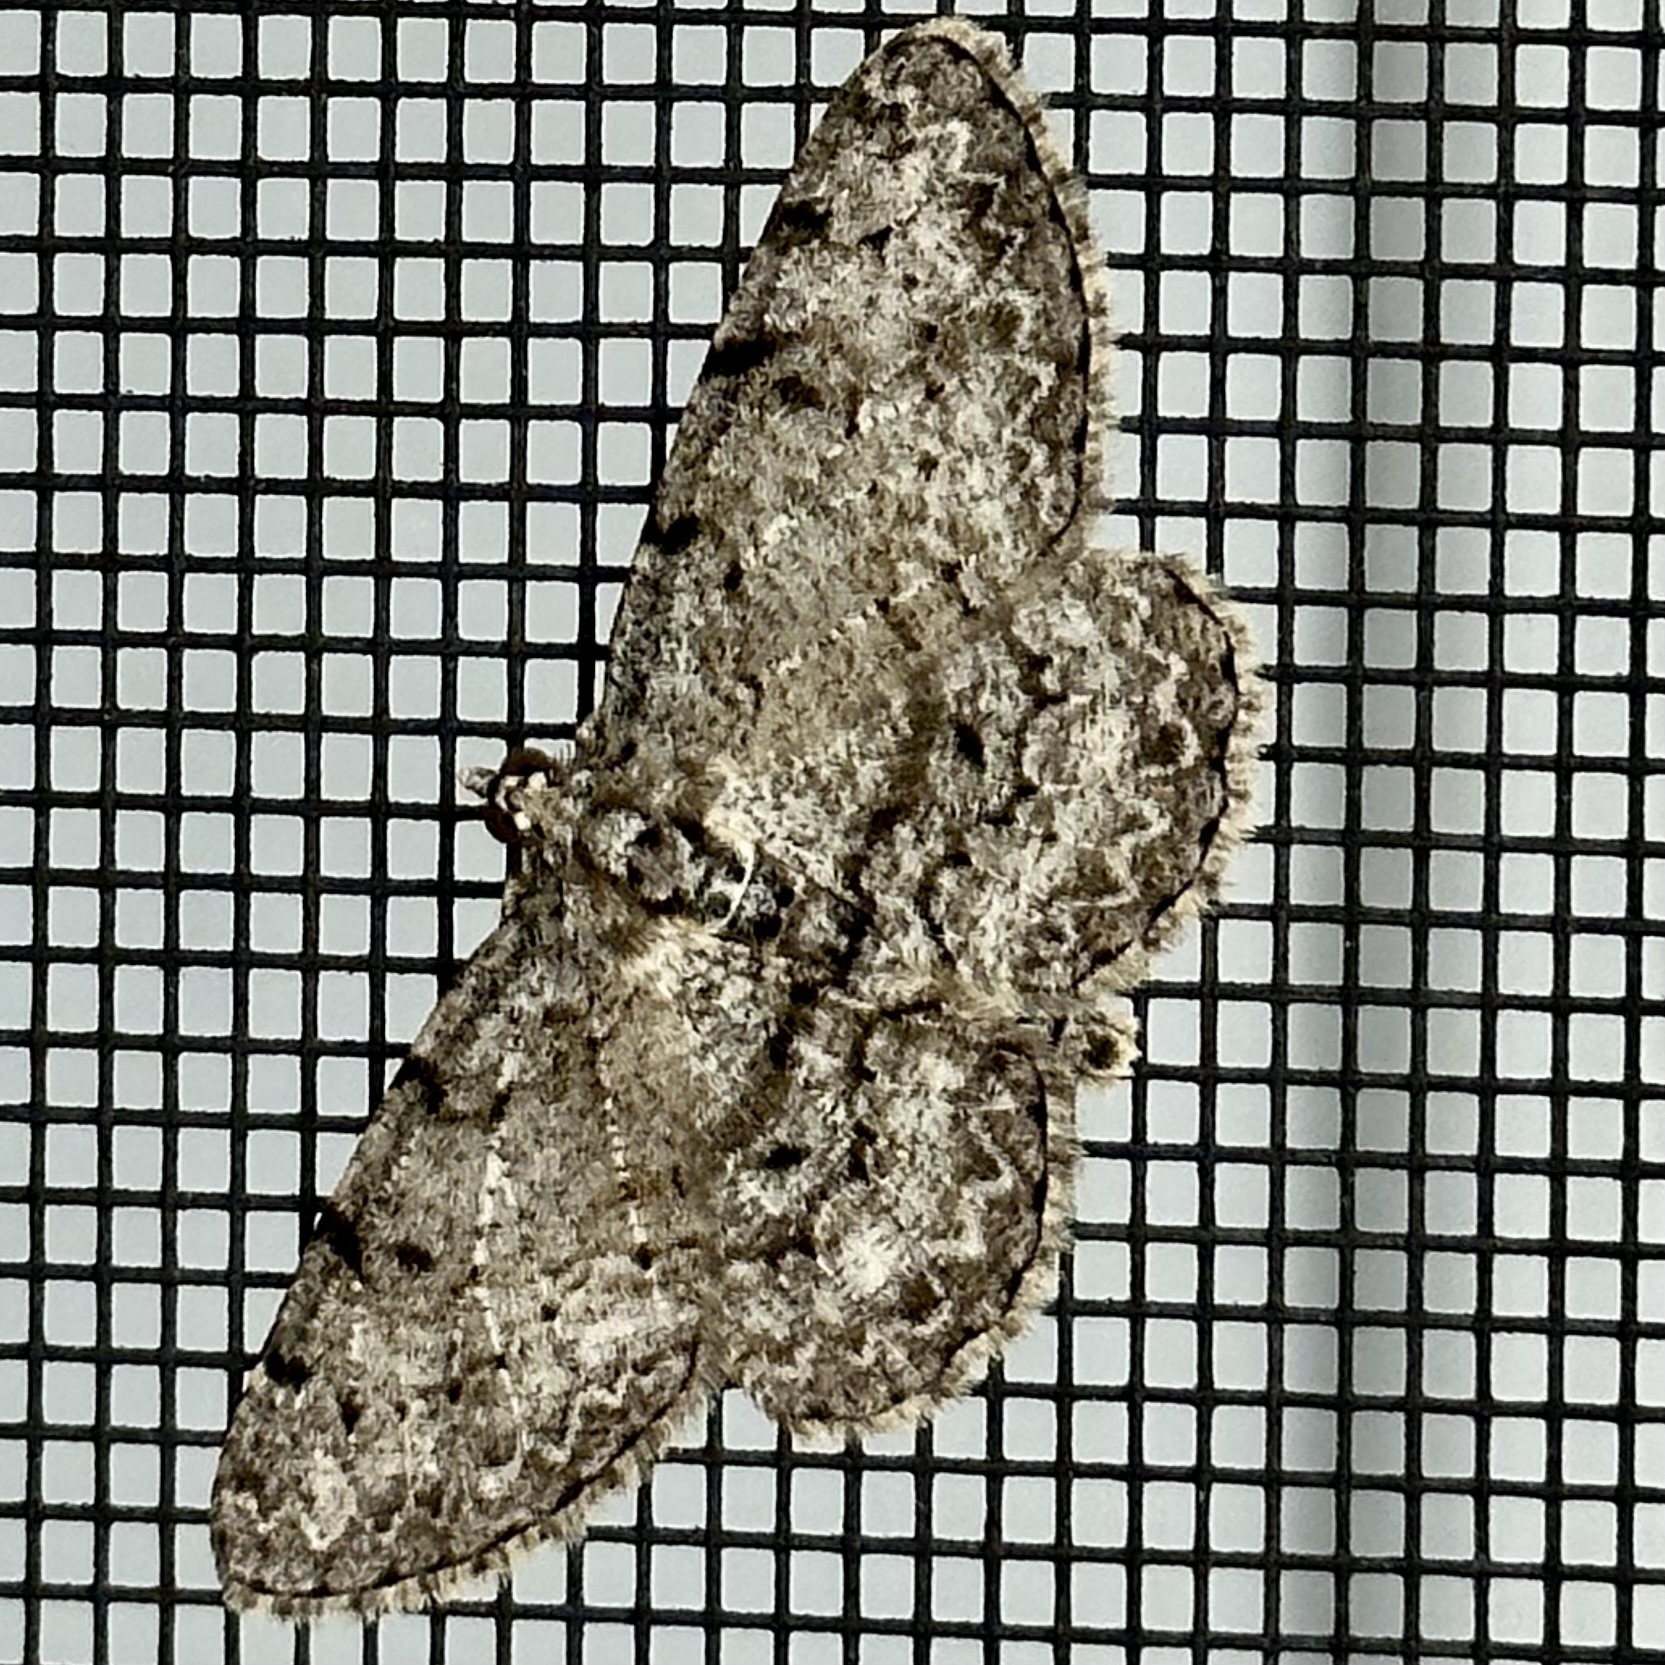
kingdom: Animalia
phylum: Arthropoda
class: Insecta
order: Lepidoptera
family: Geometridae
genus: Protoboarmia
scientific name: Protoboarmia porcelaria
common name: Porcelain gray
